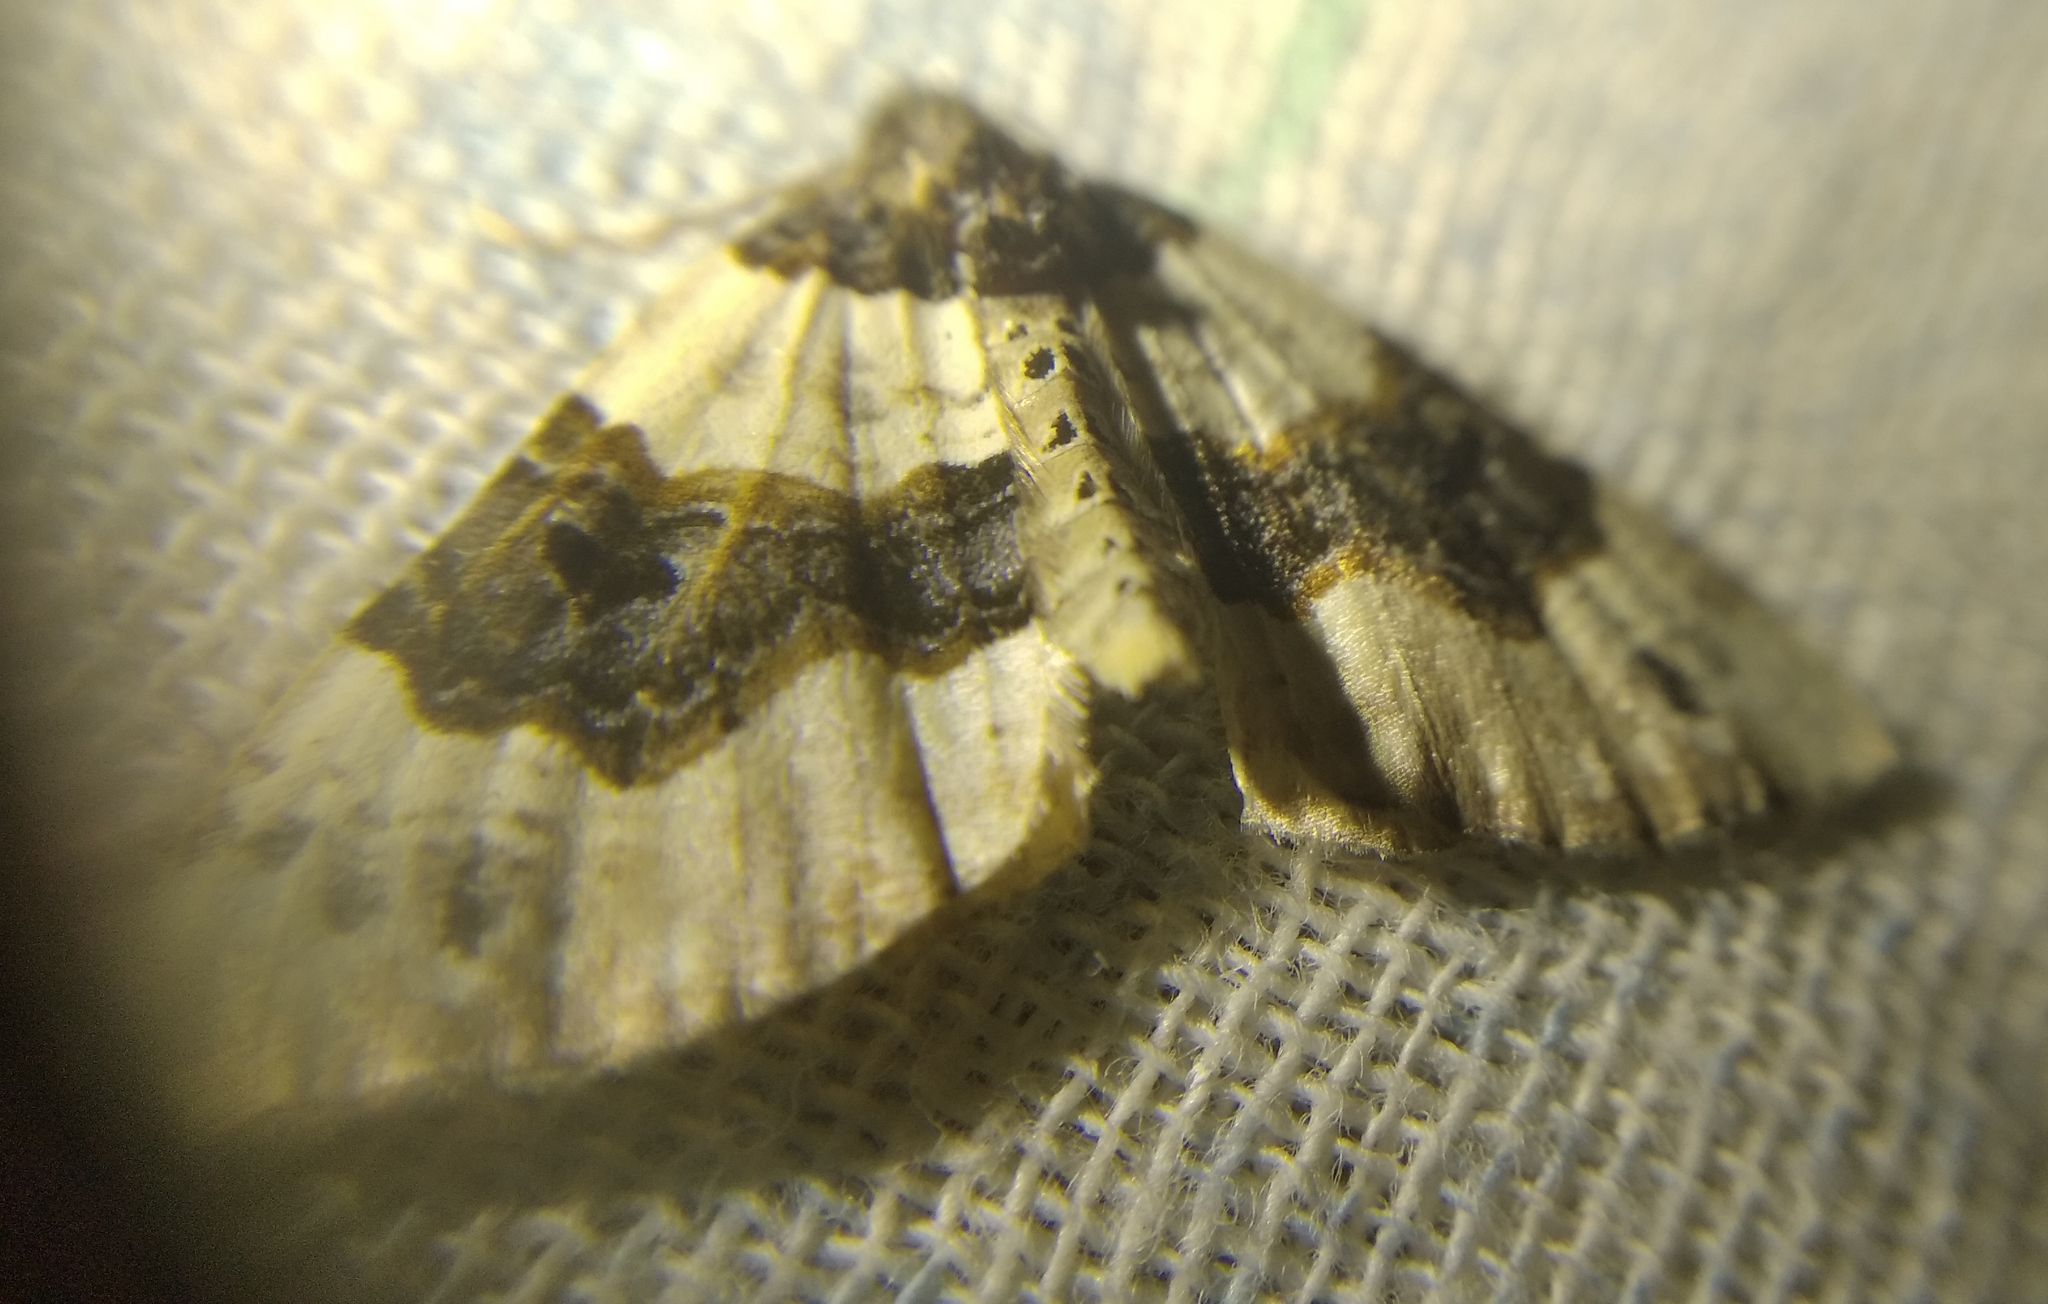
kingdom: Animalia
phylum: Arthropoda
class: Insecta
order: Lepidoptera
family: Geometridae
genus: Cosmorhoe
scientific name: Cosmorhoe ocellata
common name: Purple bar
